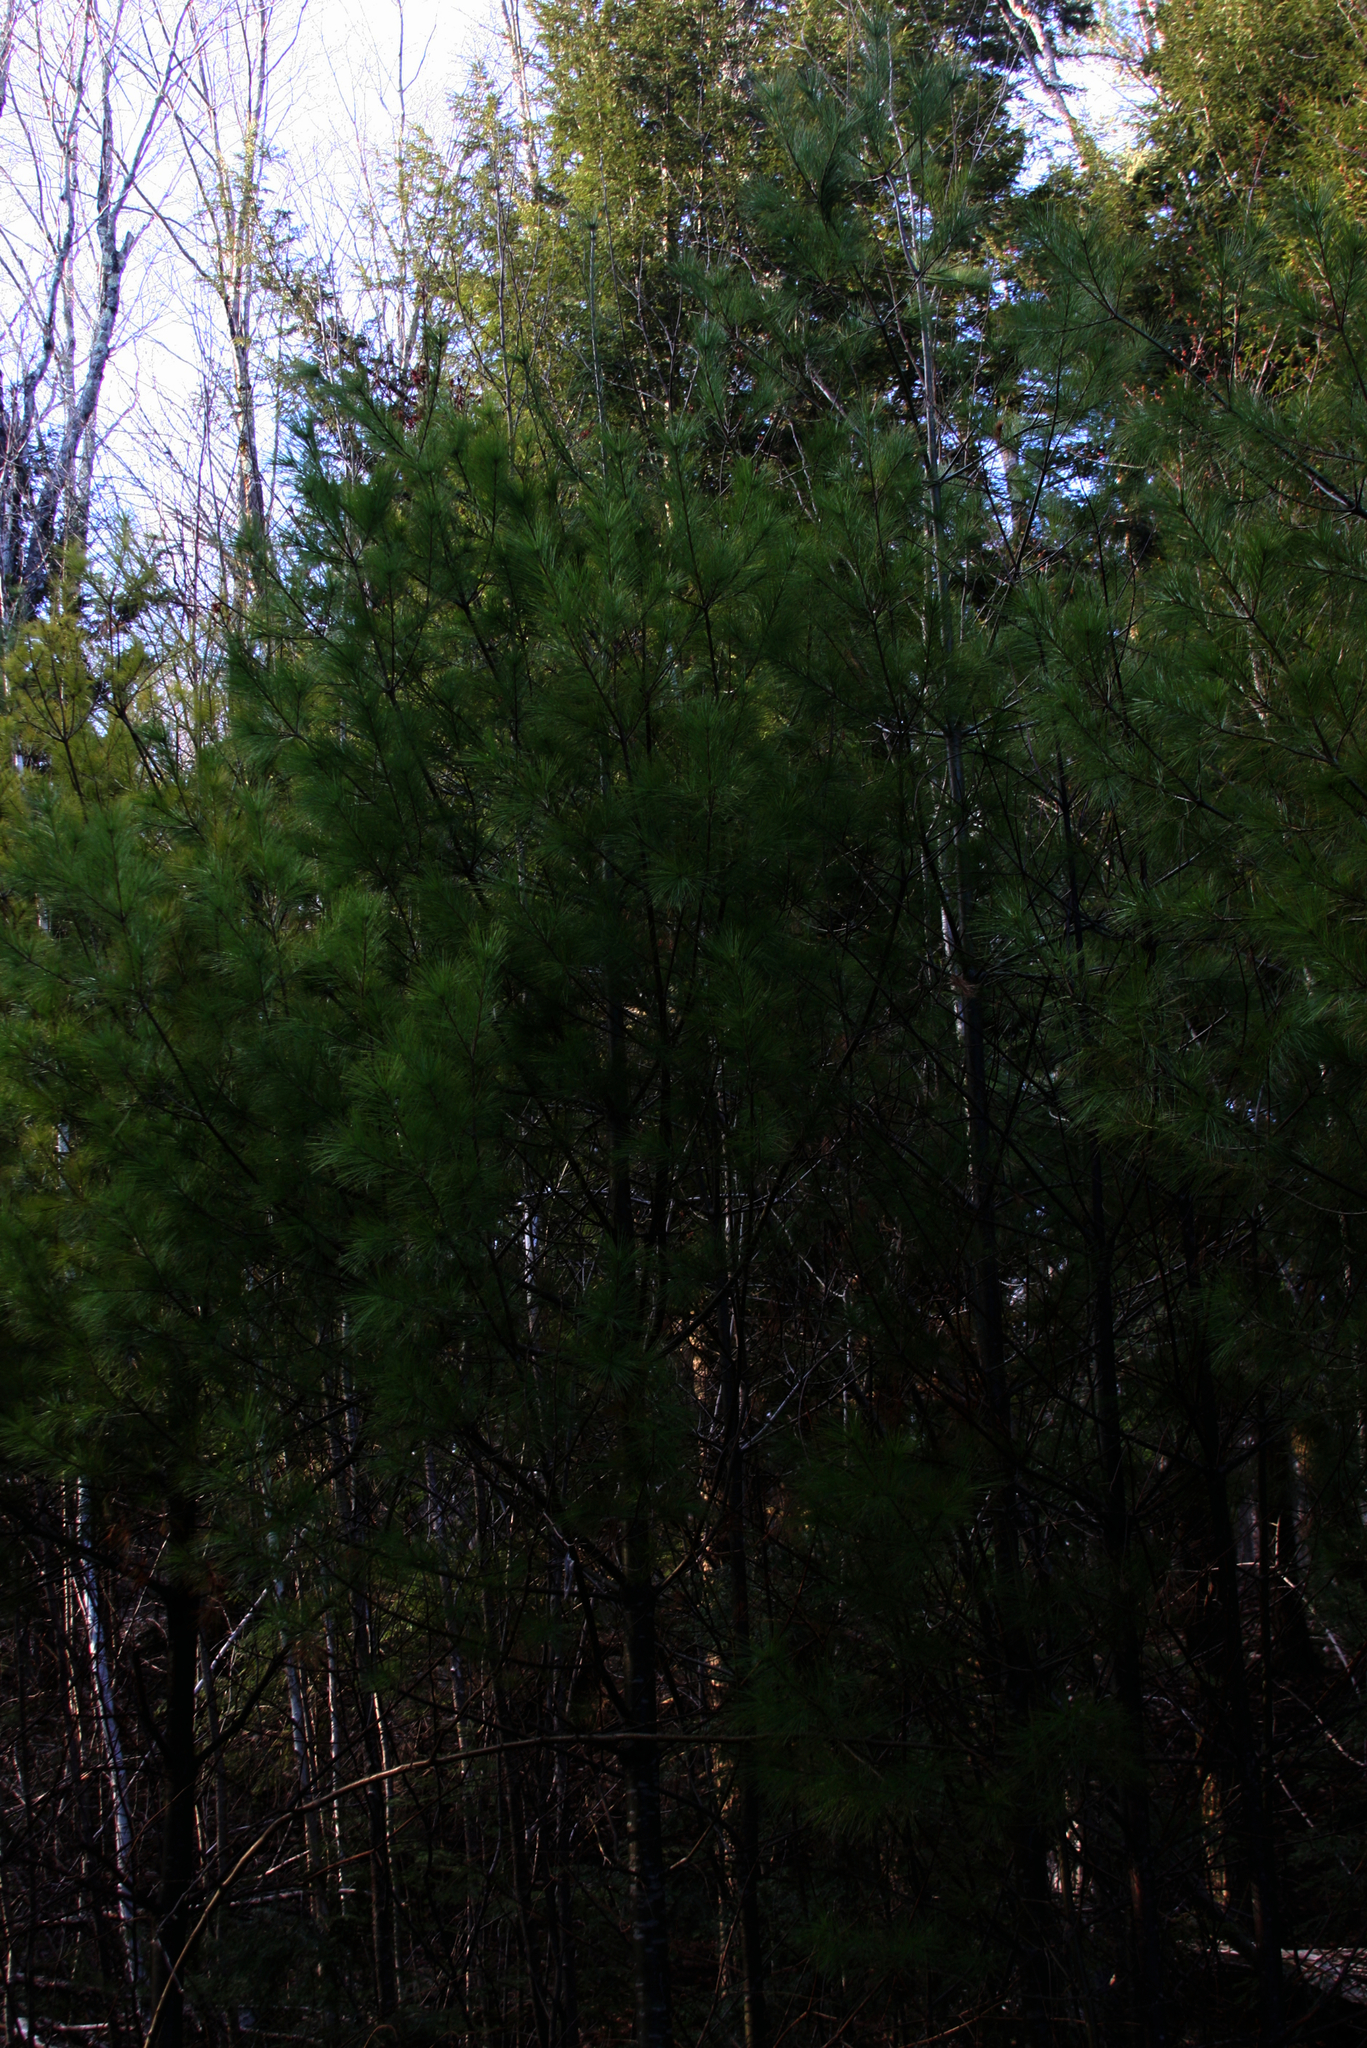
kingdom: Plantae
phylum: Tracheophyta
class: Pinopsida
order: Pinales
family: Pinaceae
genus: Pinus
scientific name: Pinus strobus
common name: Weymouth pine
